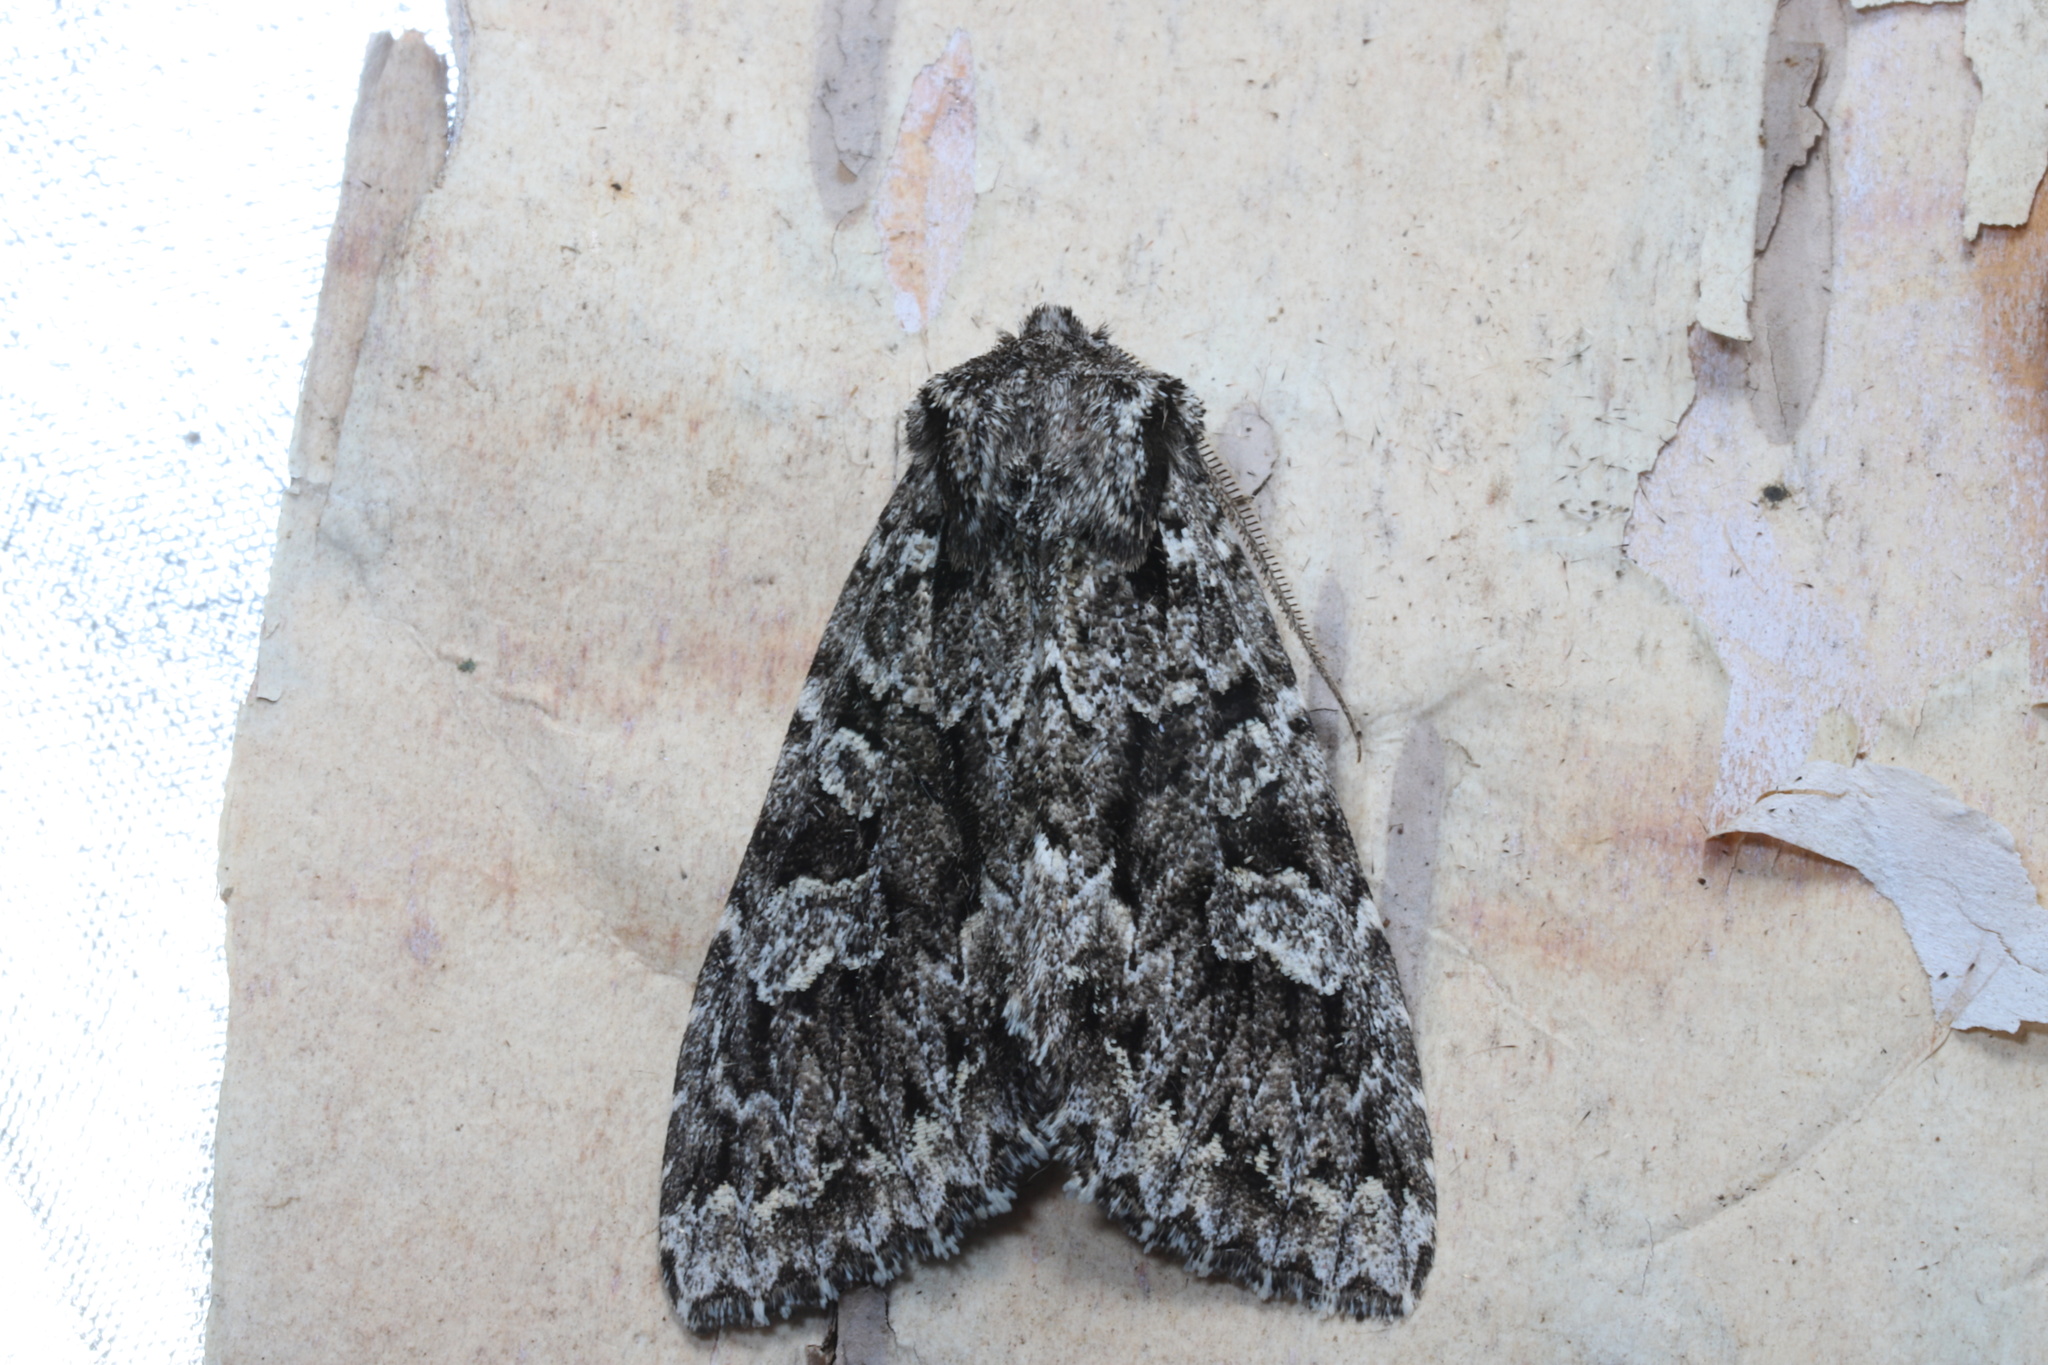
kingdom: Animalia
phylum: Arthropoda
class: Insecta
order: Lepidoptera
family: Noctuidae
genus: Platypolia
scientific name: Platypolia anceps
